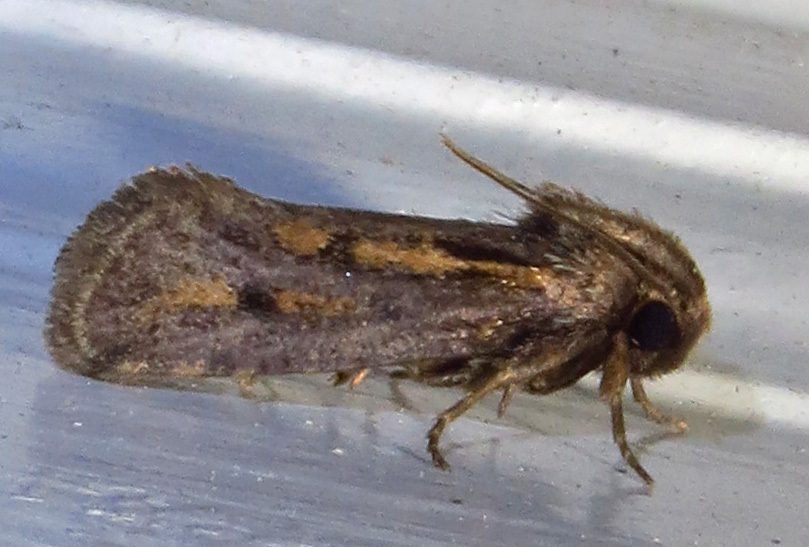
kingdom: Animalia
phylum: Arthropoda
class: Insecta
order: Lepidoptera
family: Tineidae
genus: Acrolophus
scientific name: Acrolophus popeanella
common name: Clemens' grass tubeworm moth
